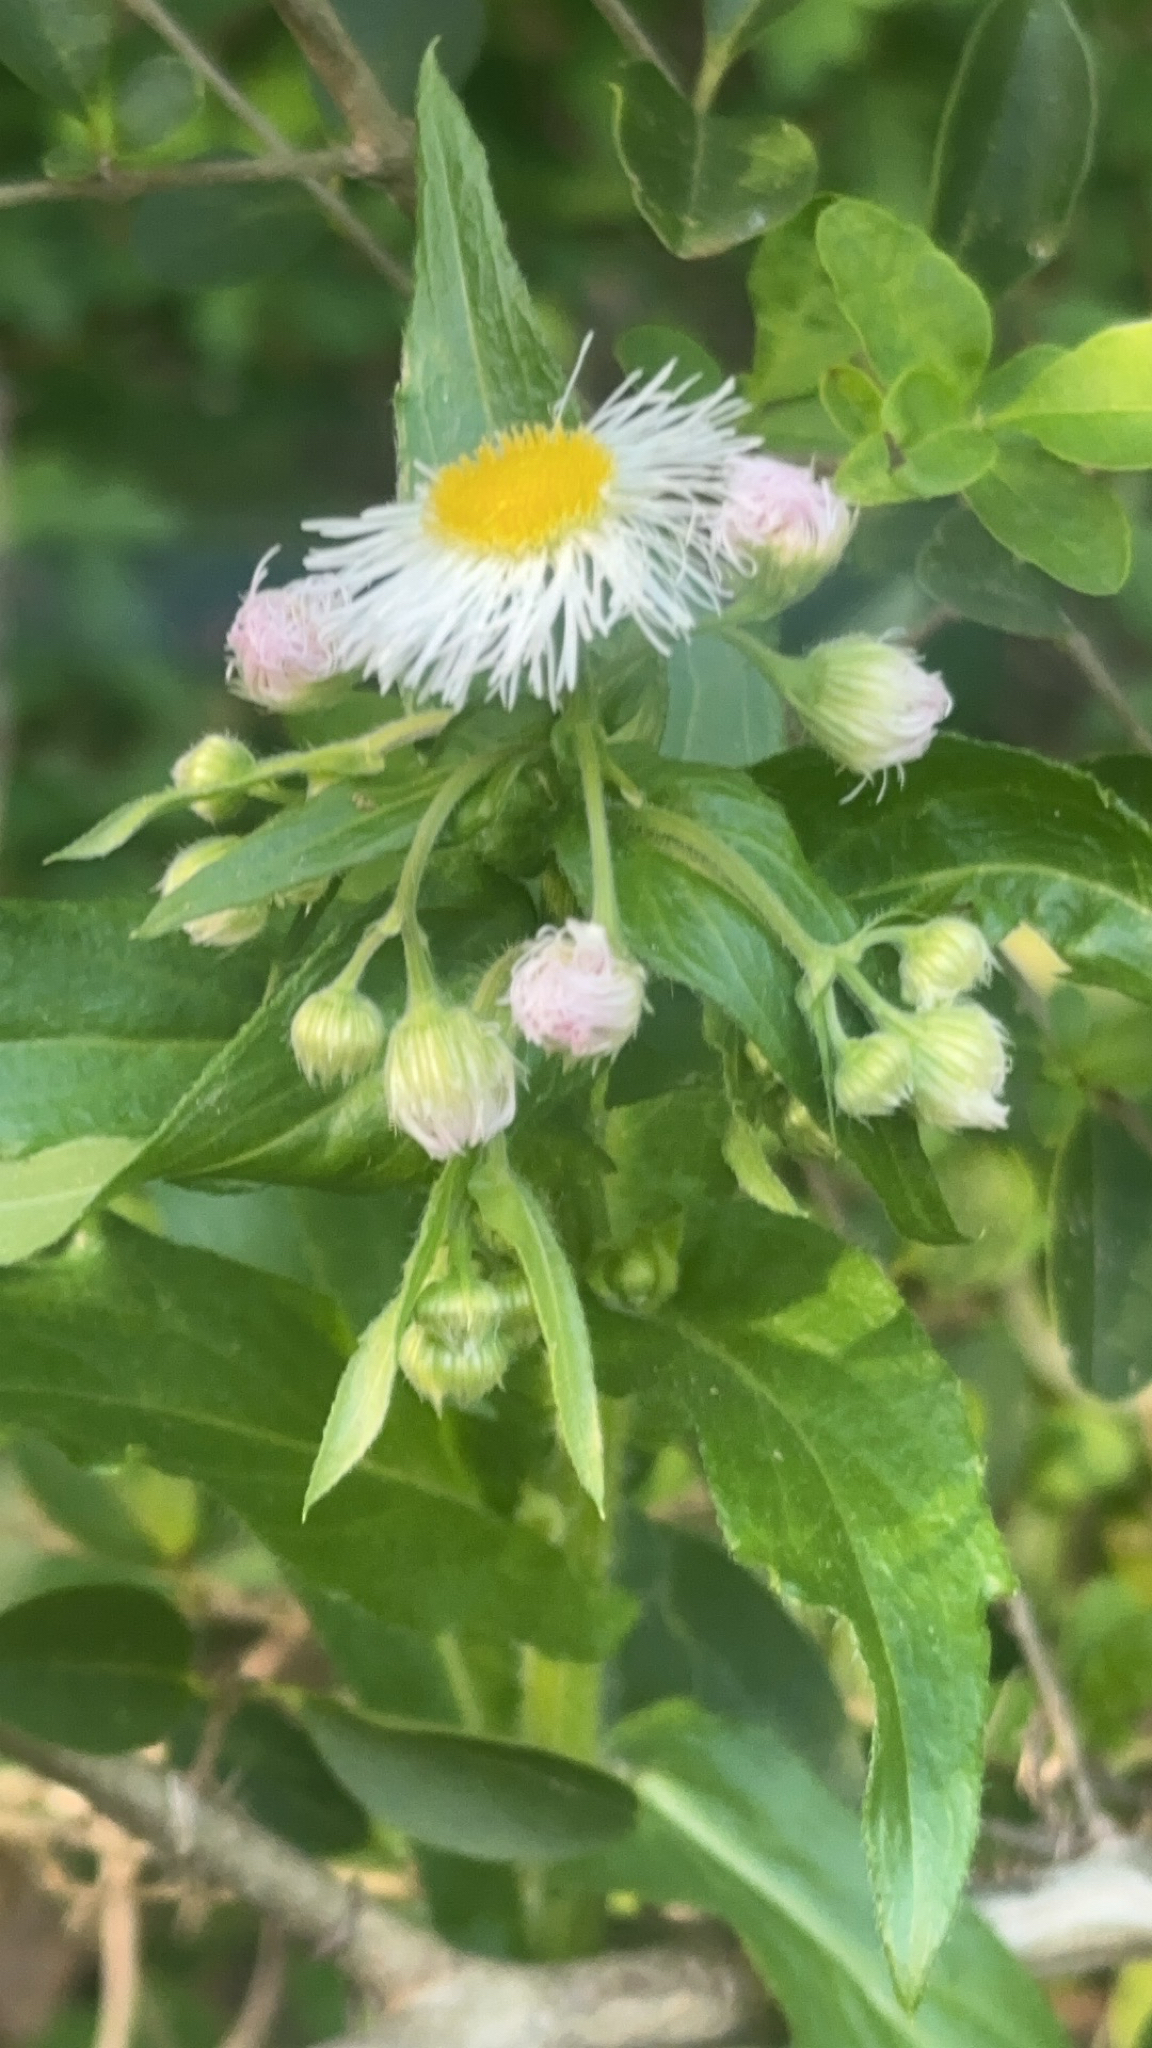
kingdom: Plantae
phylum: Tracheophyta
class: Magnoliopsida
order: Asterales
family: Asteraceae
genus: Erigeron
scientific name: Erigeron philadelphicus
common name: Robin's-plantain
